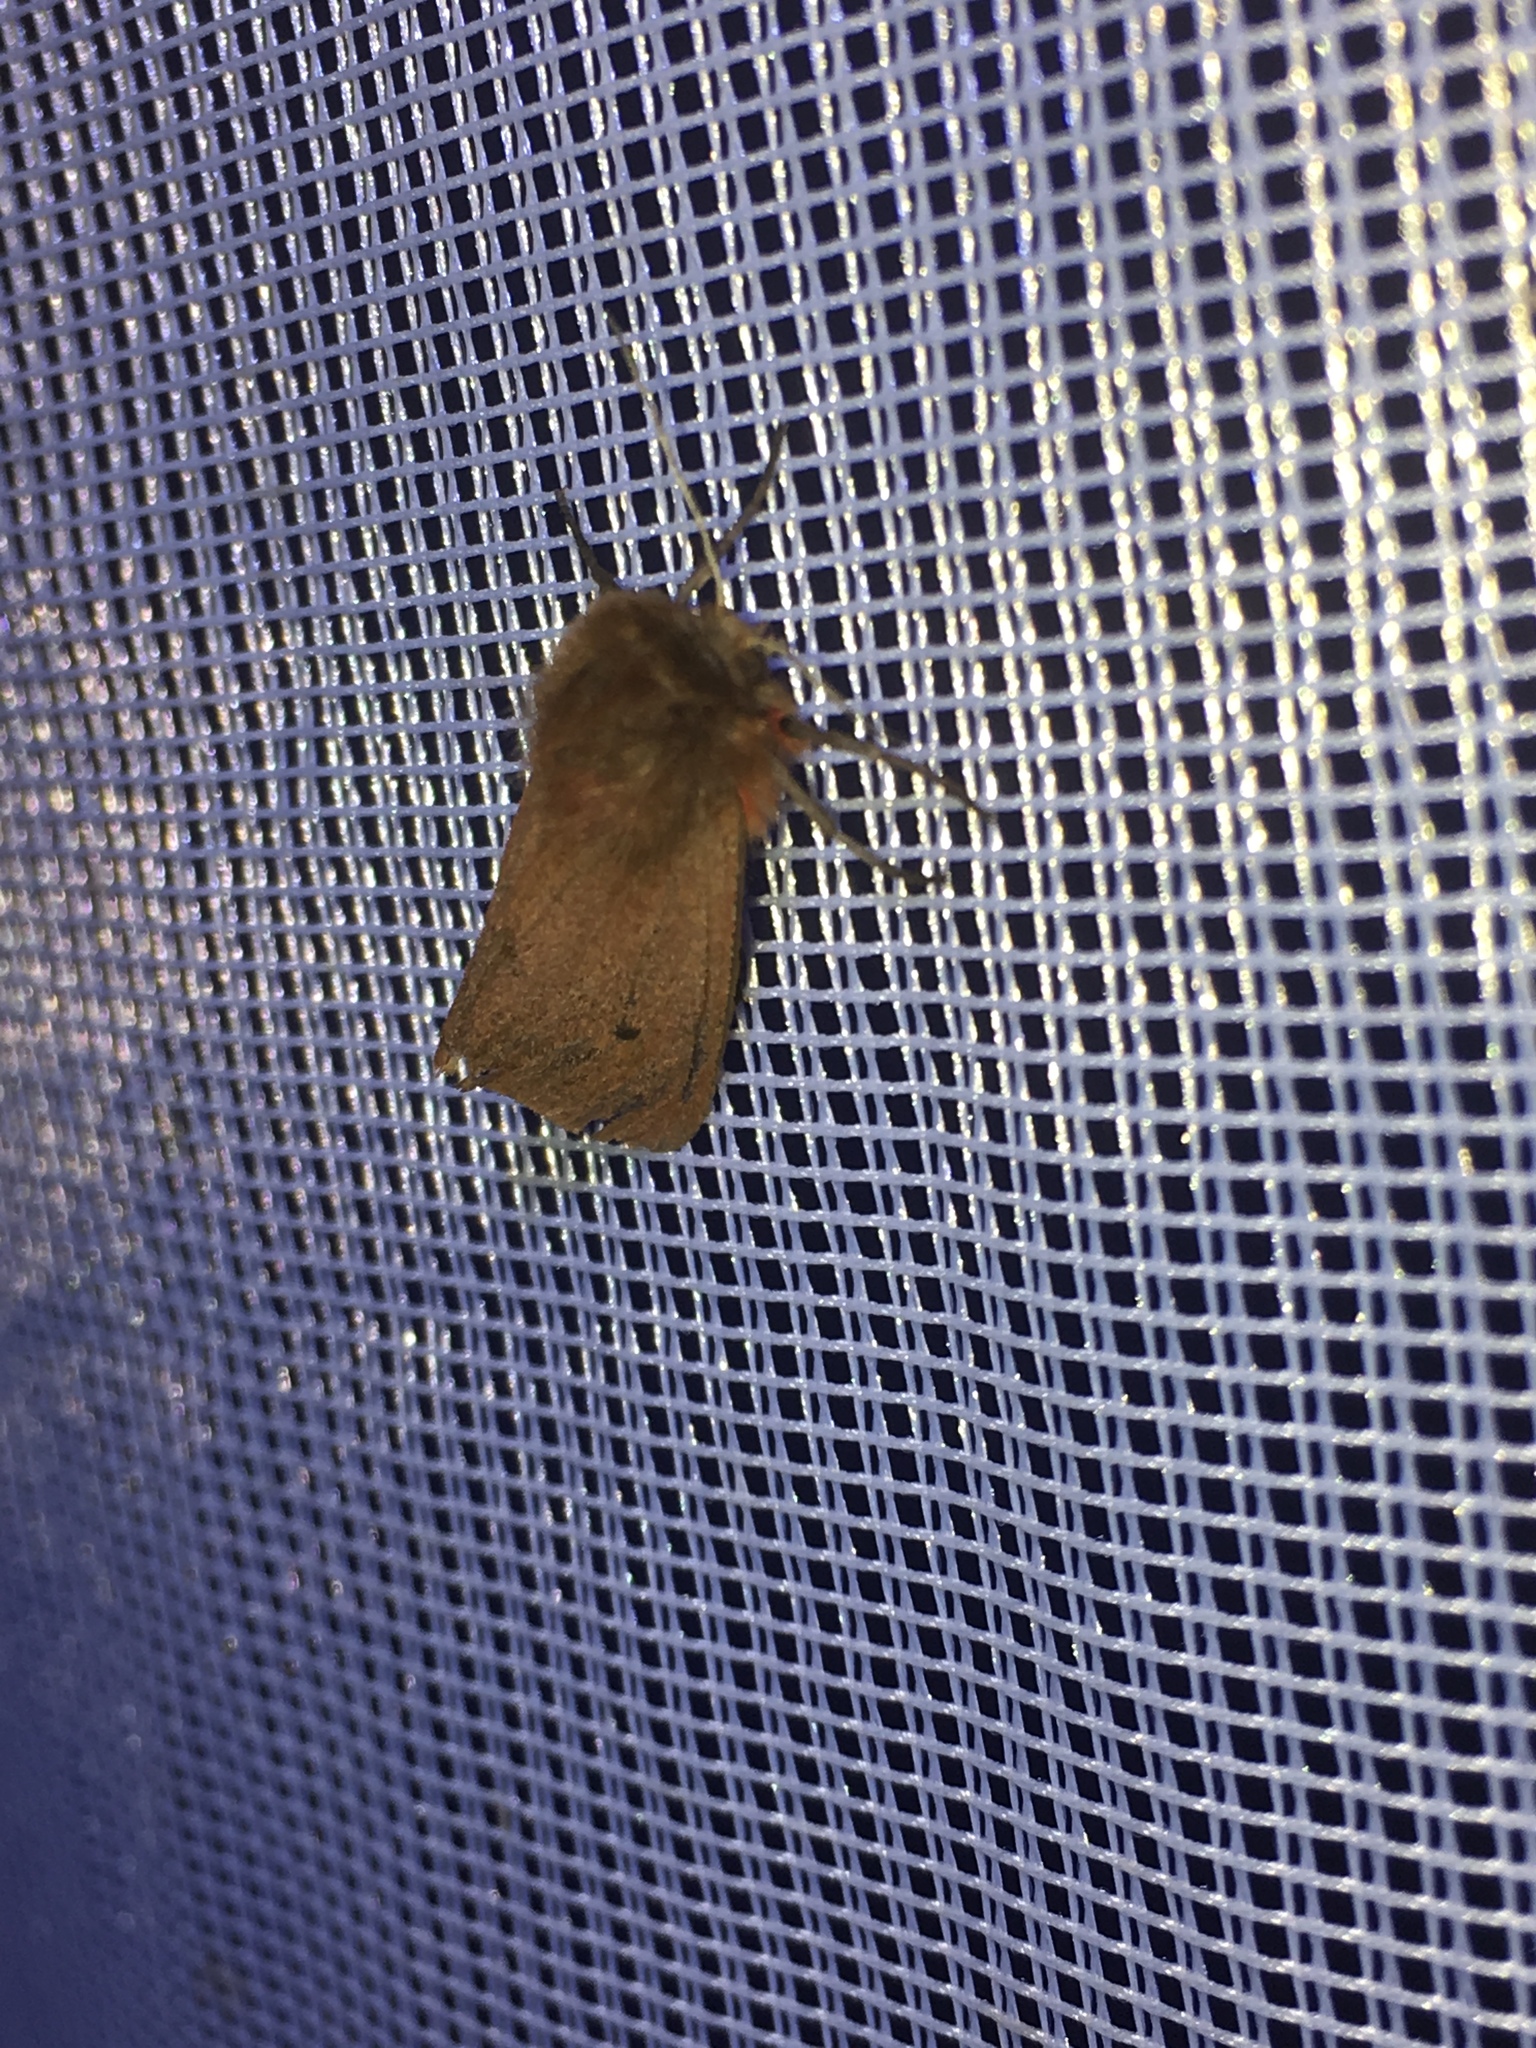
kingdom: Animalia
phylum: Arthropoda
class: Insecta
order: Lepidoptera
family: Erebidae
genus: Phragmatobia
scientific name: Phragmatobia fuliginosa
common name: Ruby tiger
